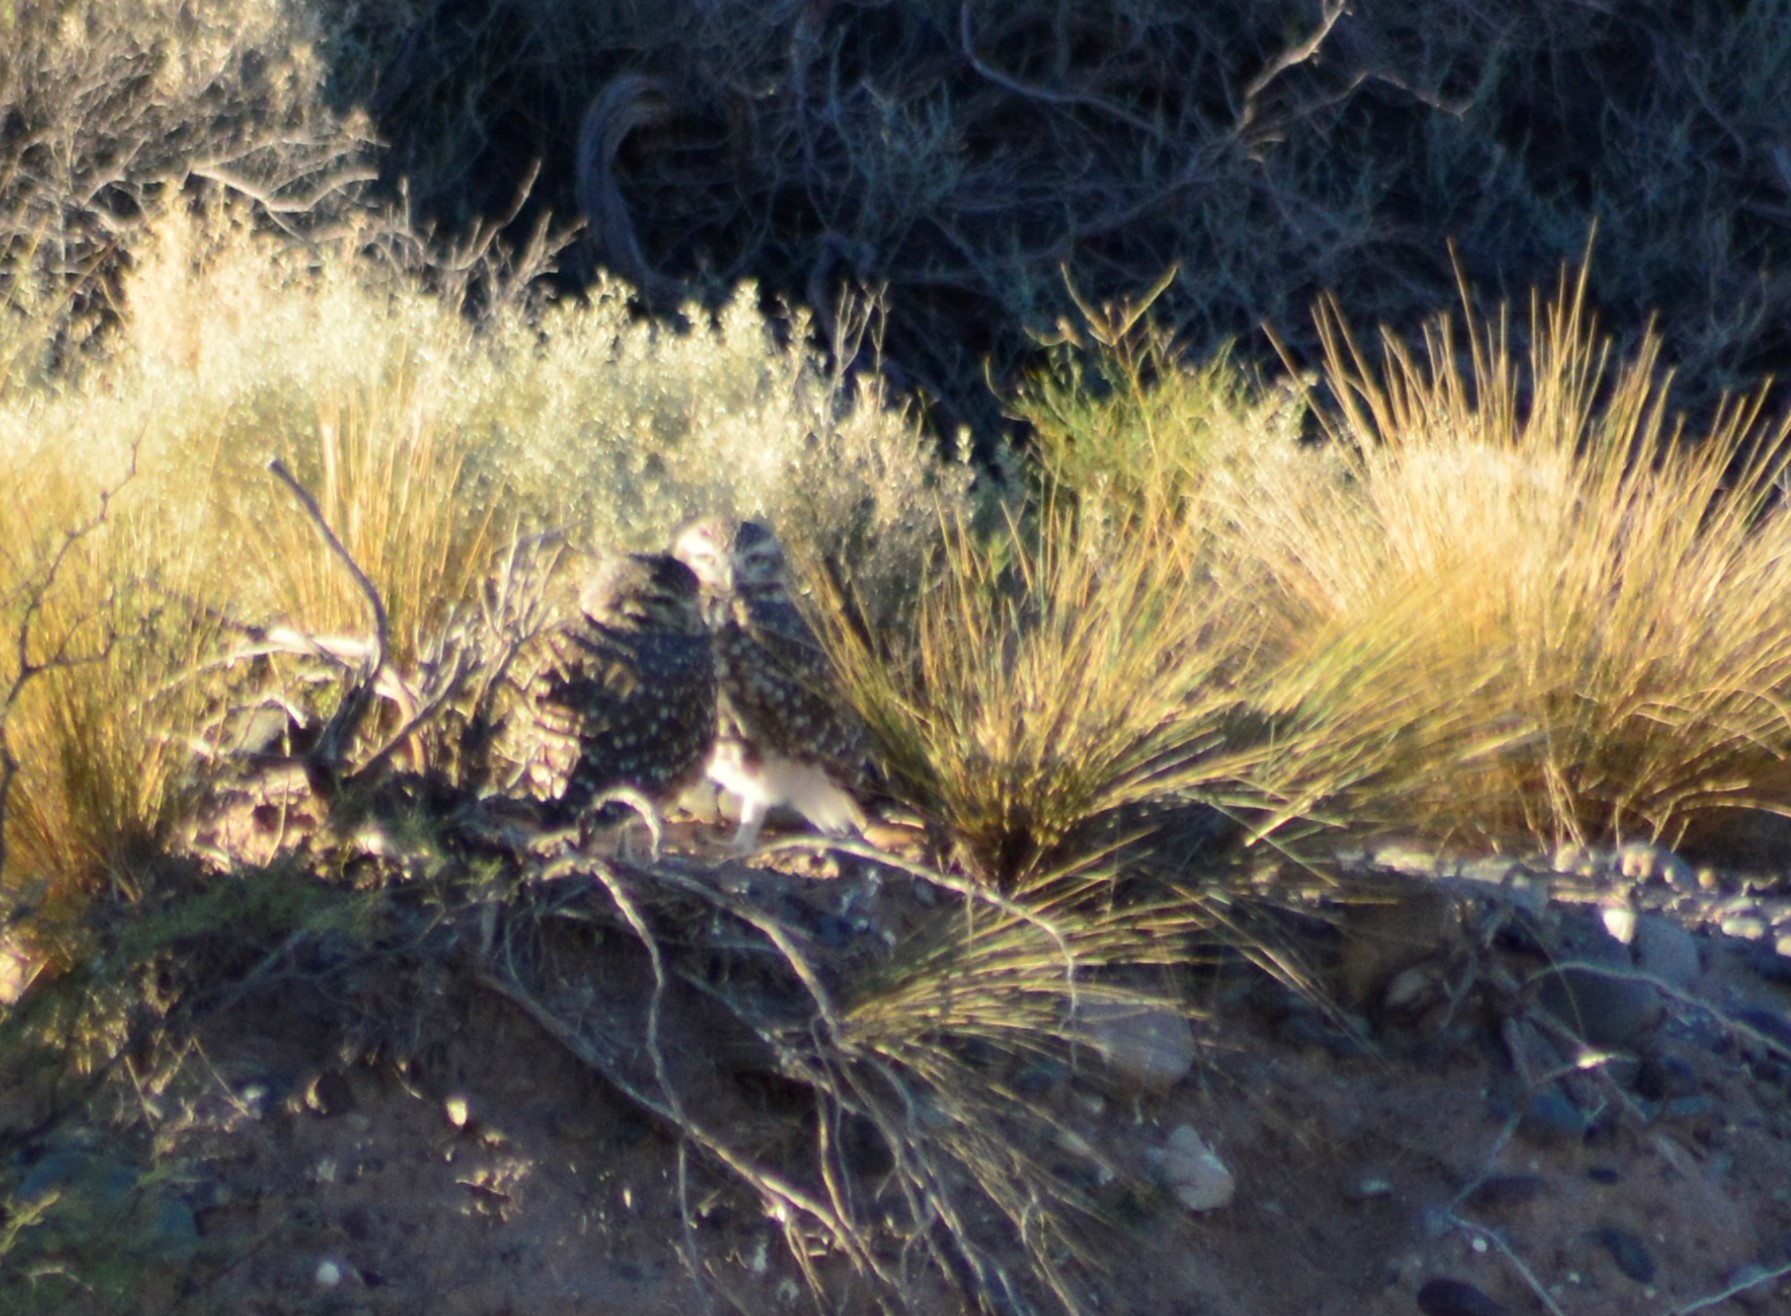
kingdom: Animalia
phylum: Chordata
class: Aves
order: Strigiformes
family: Strigidae
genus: Athene
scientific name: Athene cunicularia
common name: Burrowing owl
